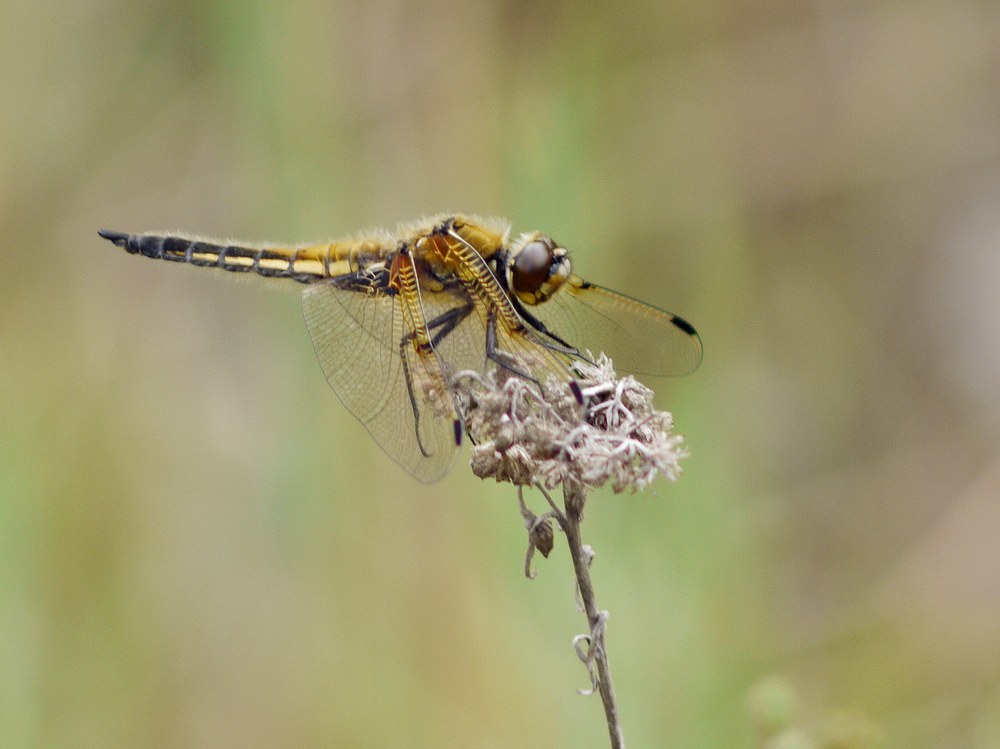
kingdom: Animalia
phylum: Arthropoda
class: Insecta
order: Odonata
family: Libellulidae
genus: Libellula
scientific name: Libellula quadrimaculata
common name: Four-spotted chaser
